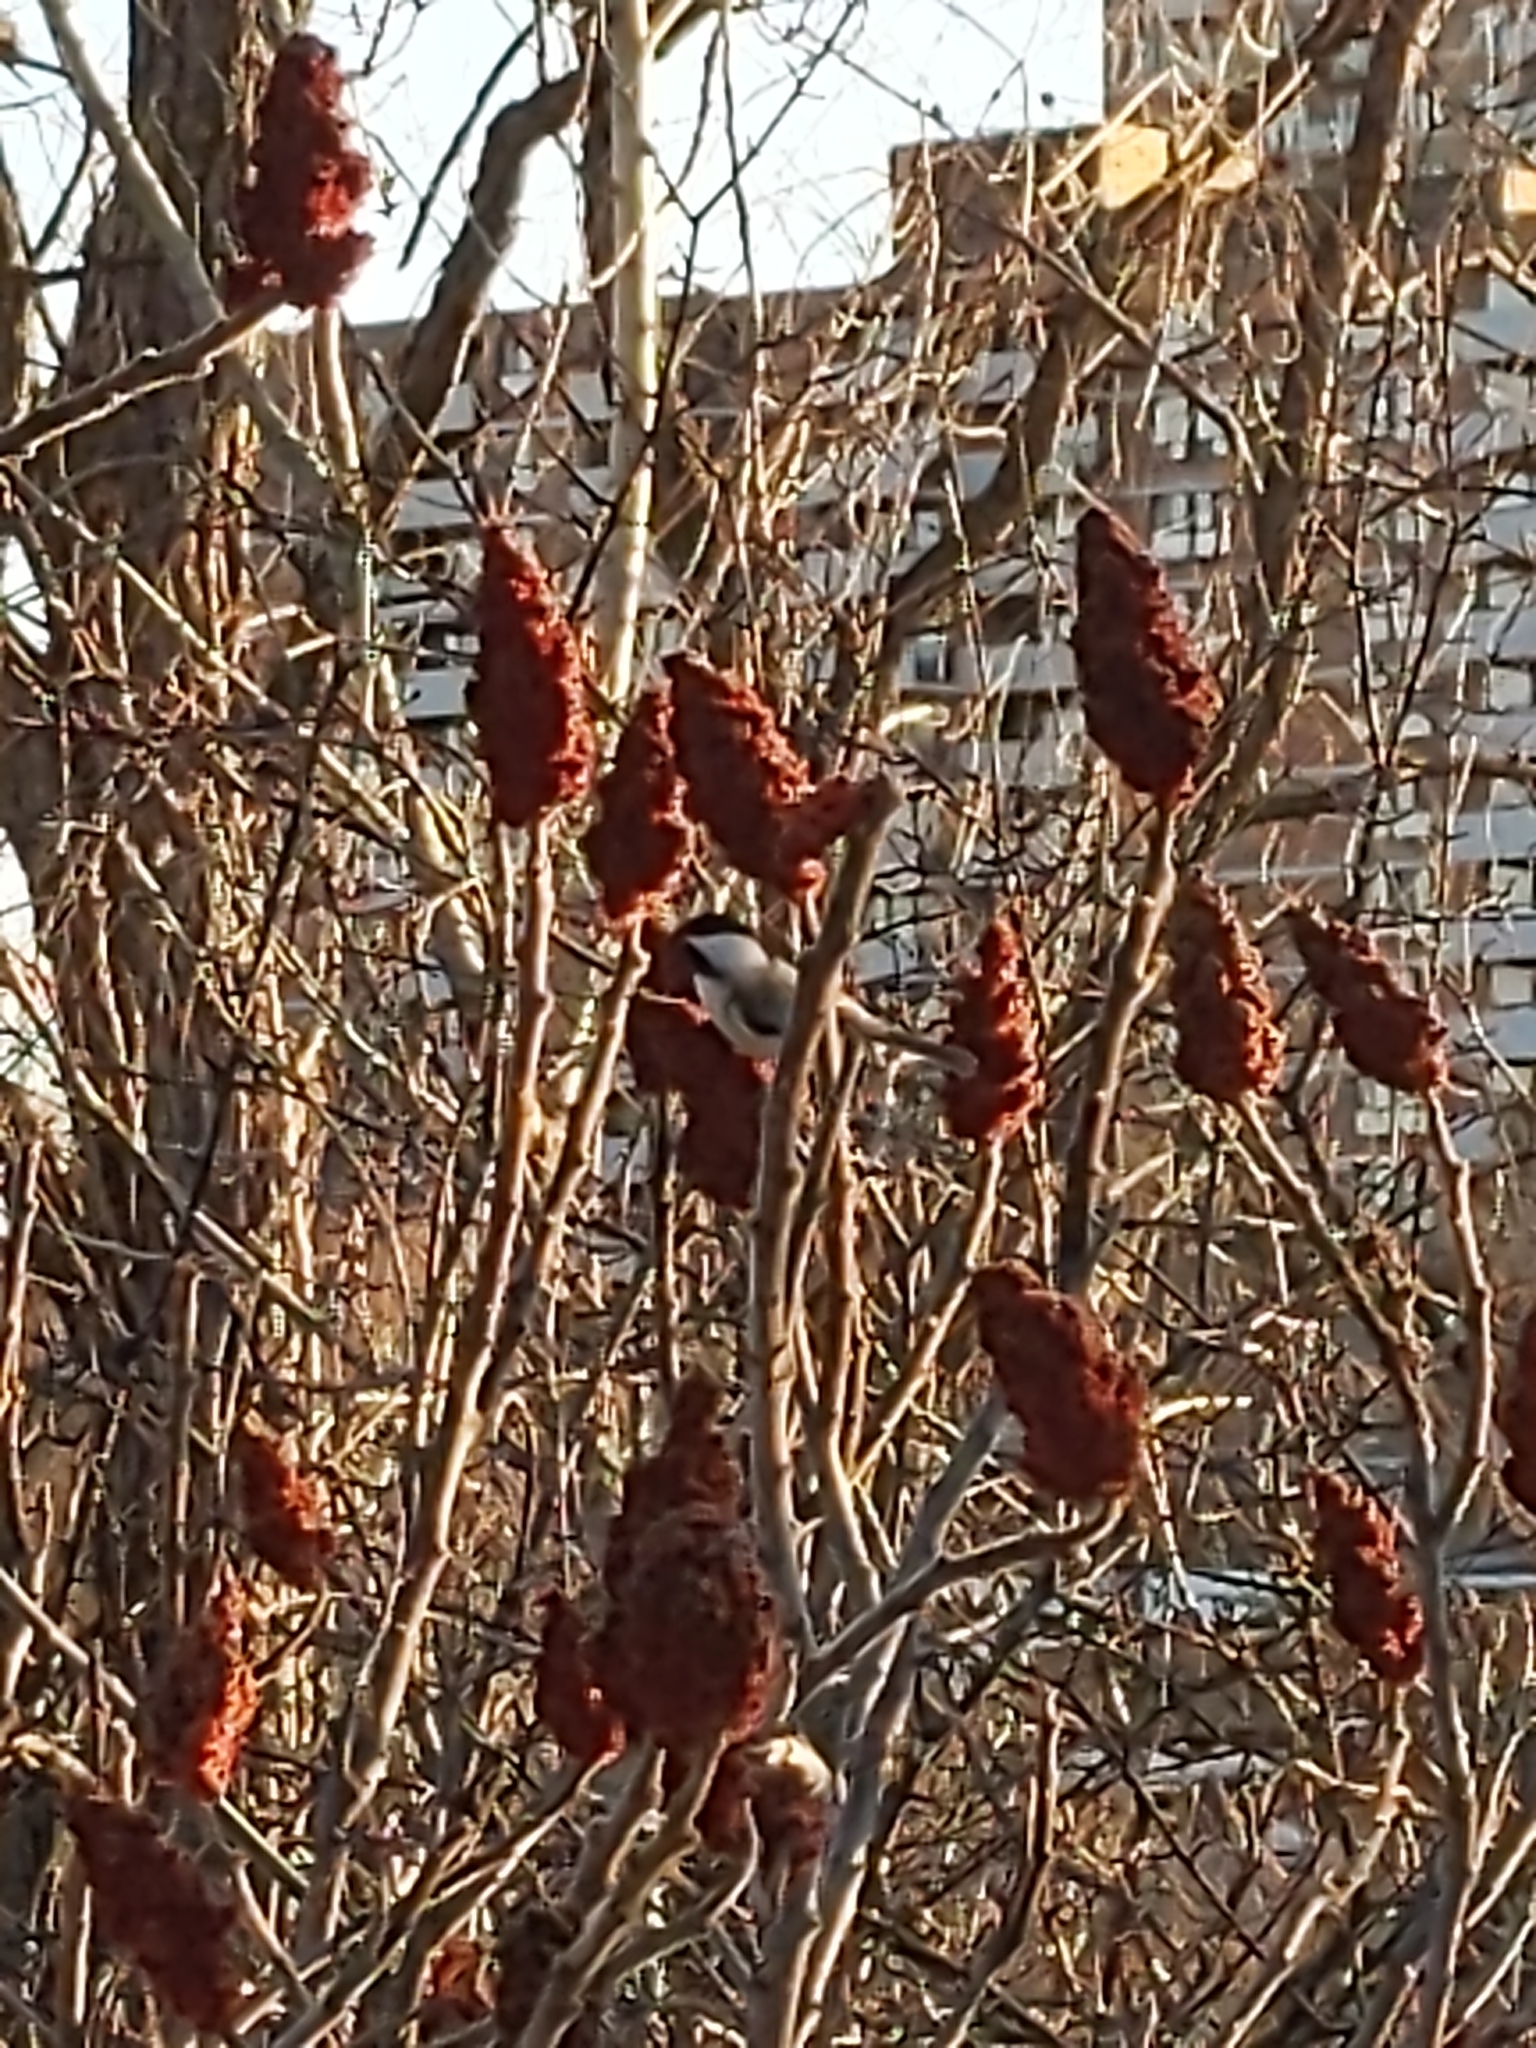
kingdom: Animalia
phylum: Chordata
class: Aves
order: Passeriformes
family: Paridae
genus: Poecile
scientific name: Poecile atricapillus
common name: Black-capped chickadee
